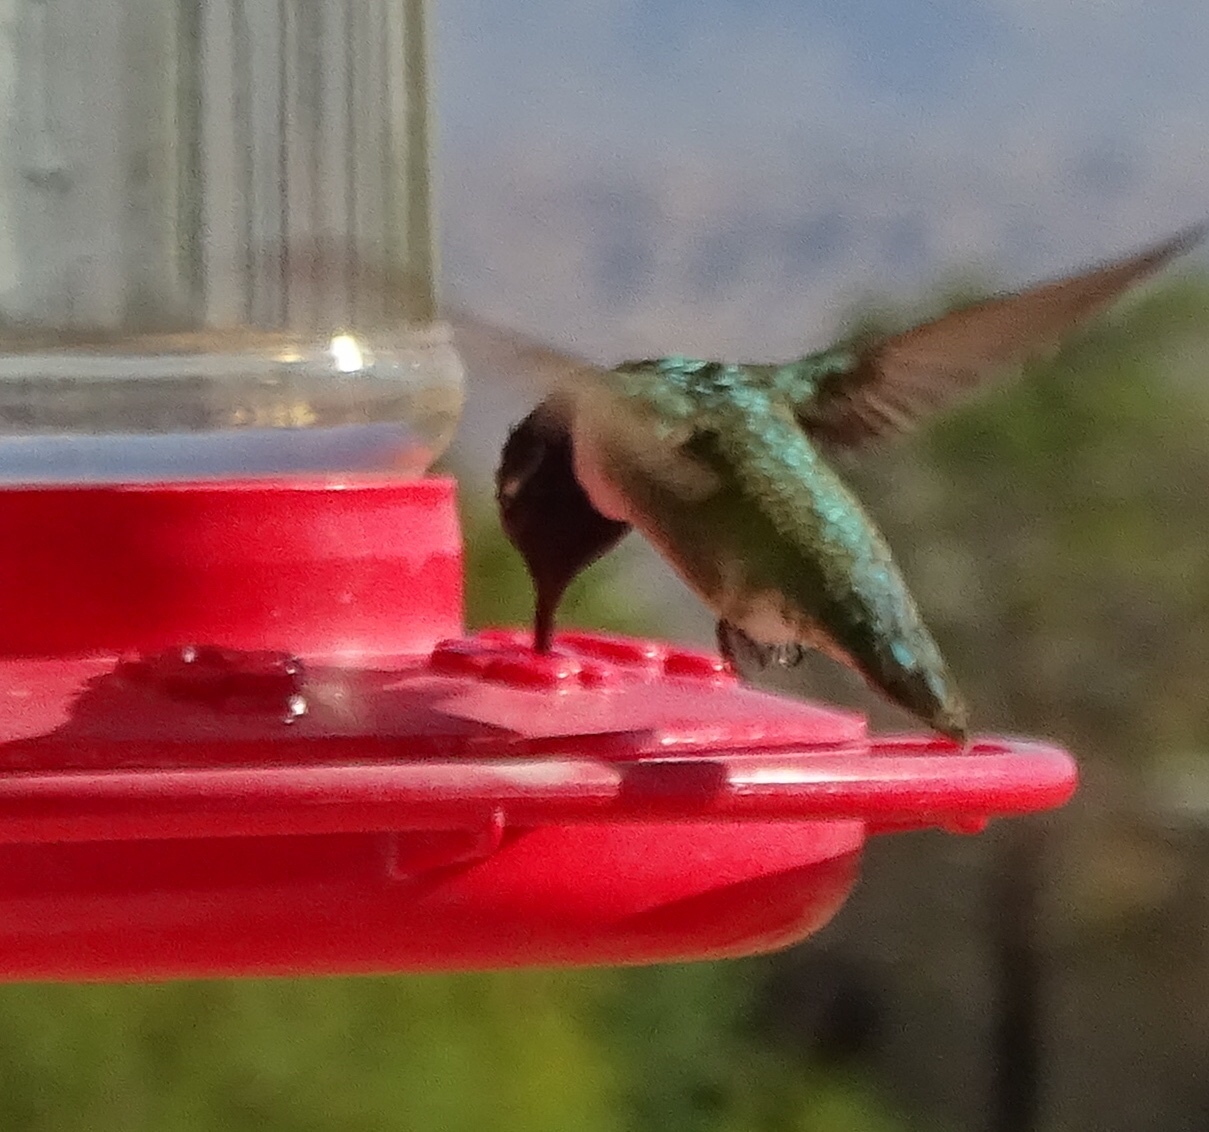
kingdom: Animalia
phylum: Chordata
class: Aves
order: Apodiformes
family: Trochilidae
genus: Calypte
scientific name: Calypte costae
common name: Costa's hummingbird
